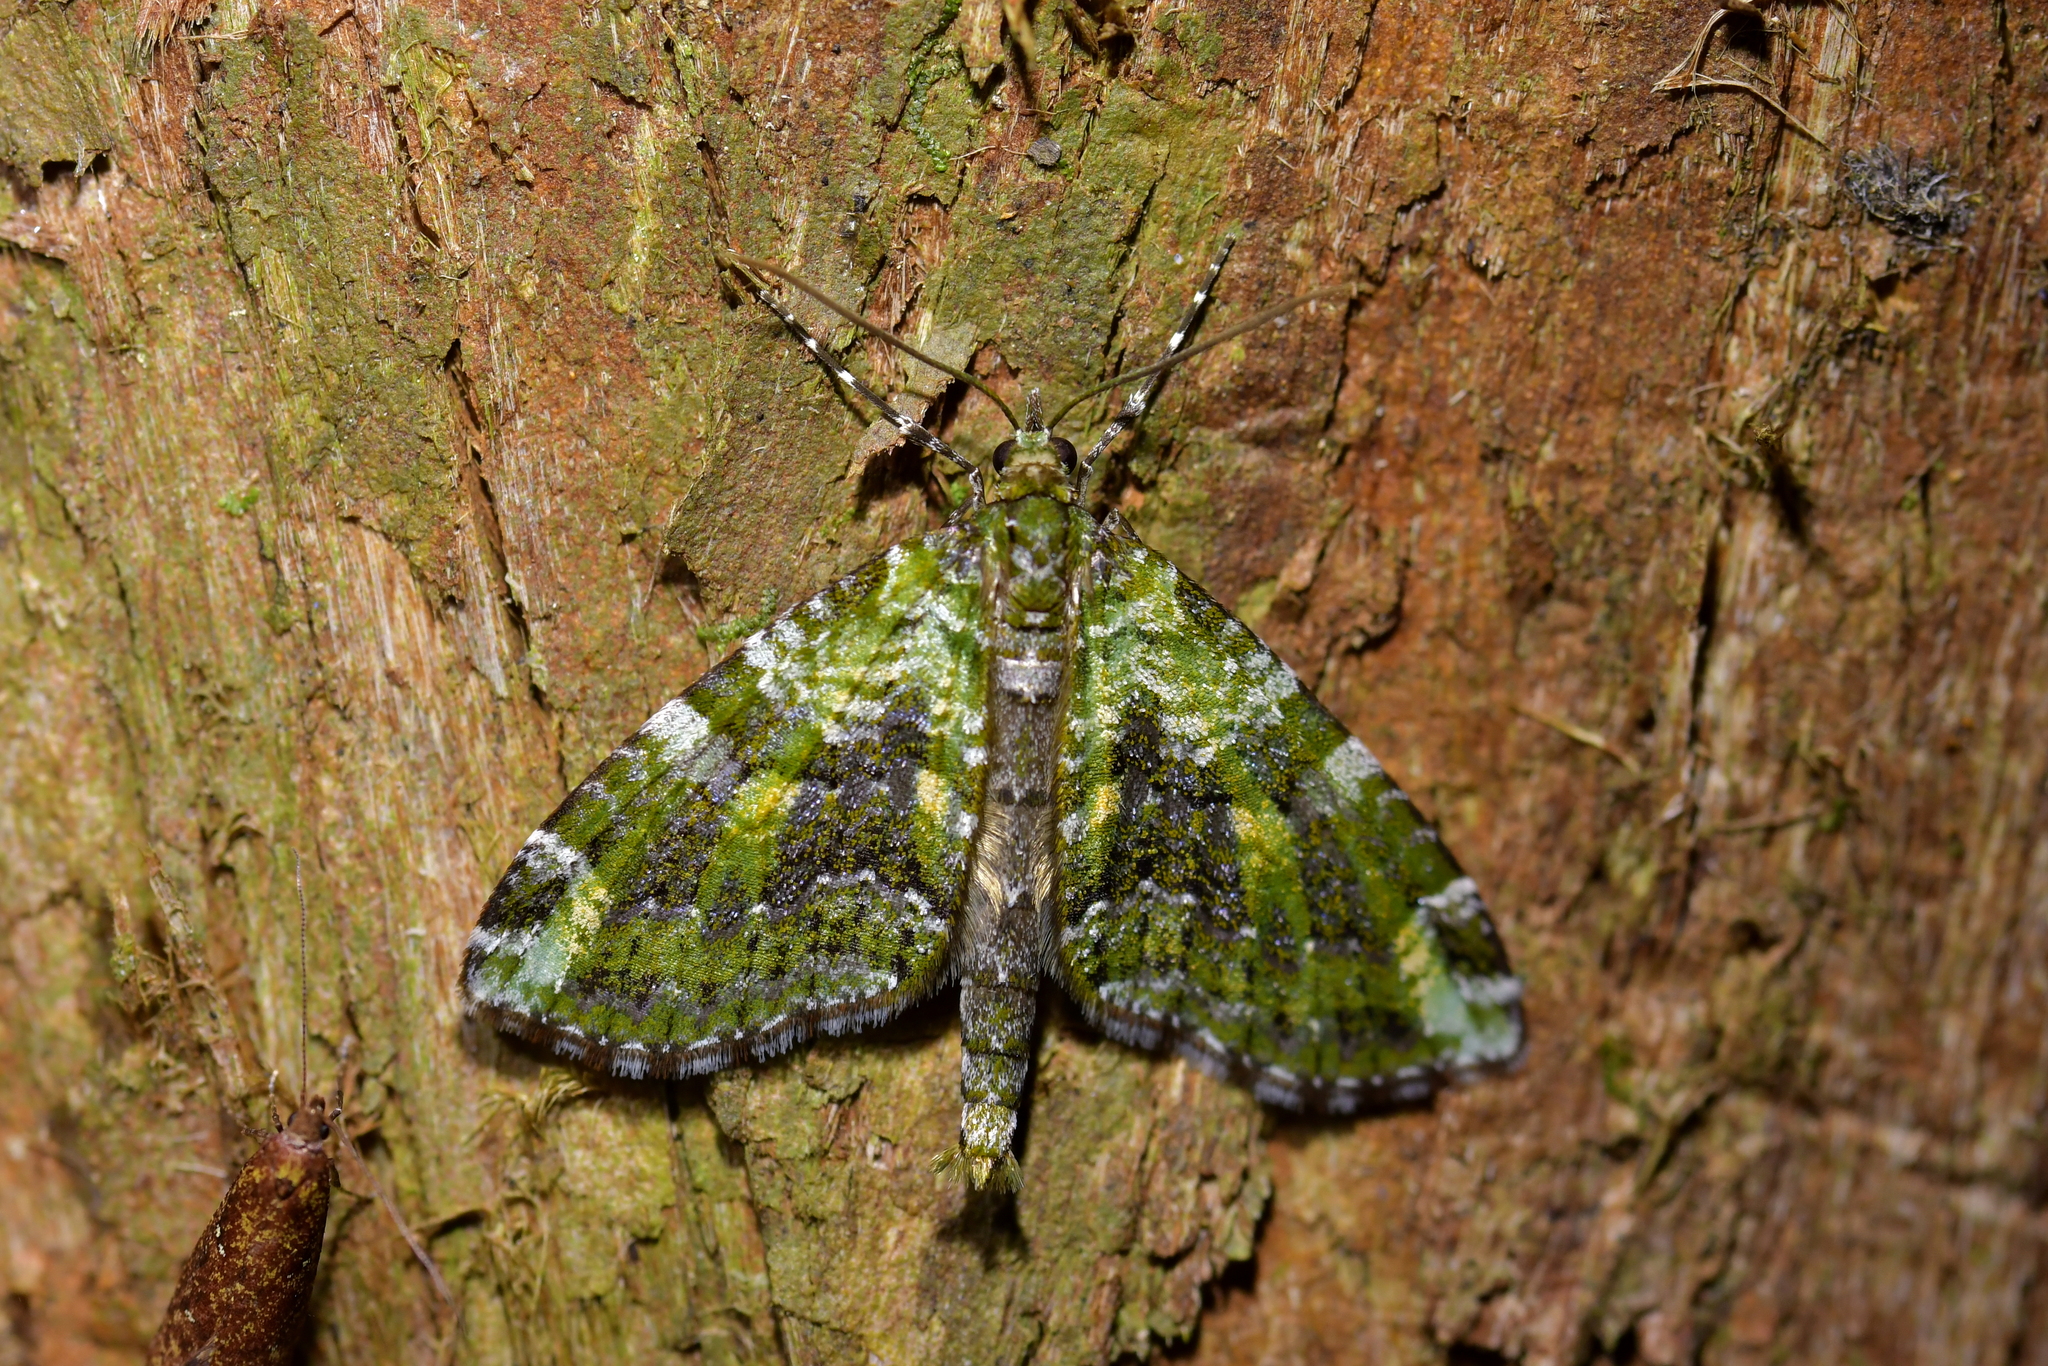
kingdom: Animalia
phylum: Arthropoda
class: Insecta
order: Lepidoptera
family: Geometridae
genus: Tatosoma
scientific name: Tatosoma apicipallida
